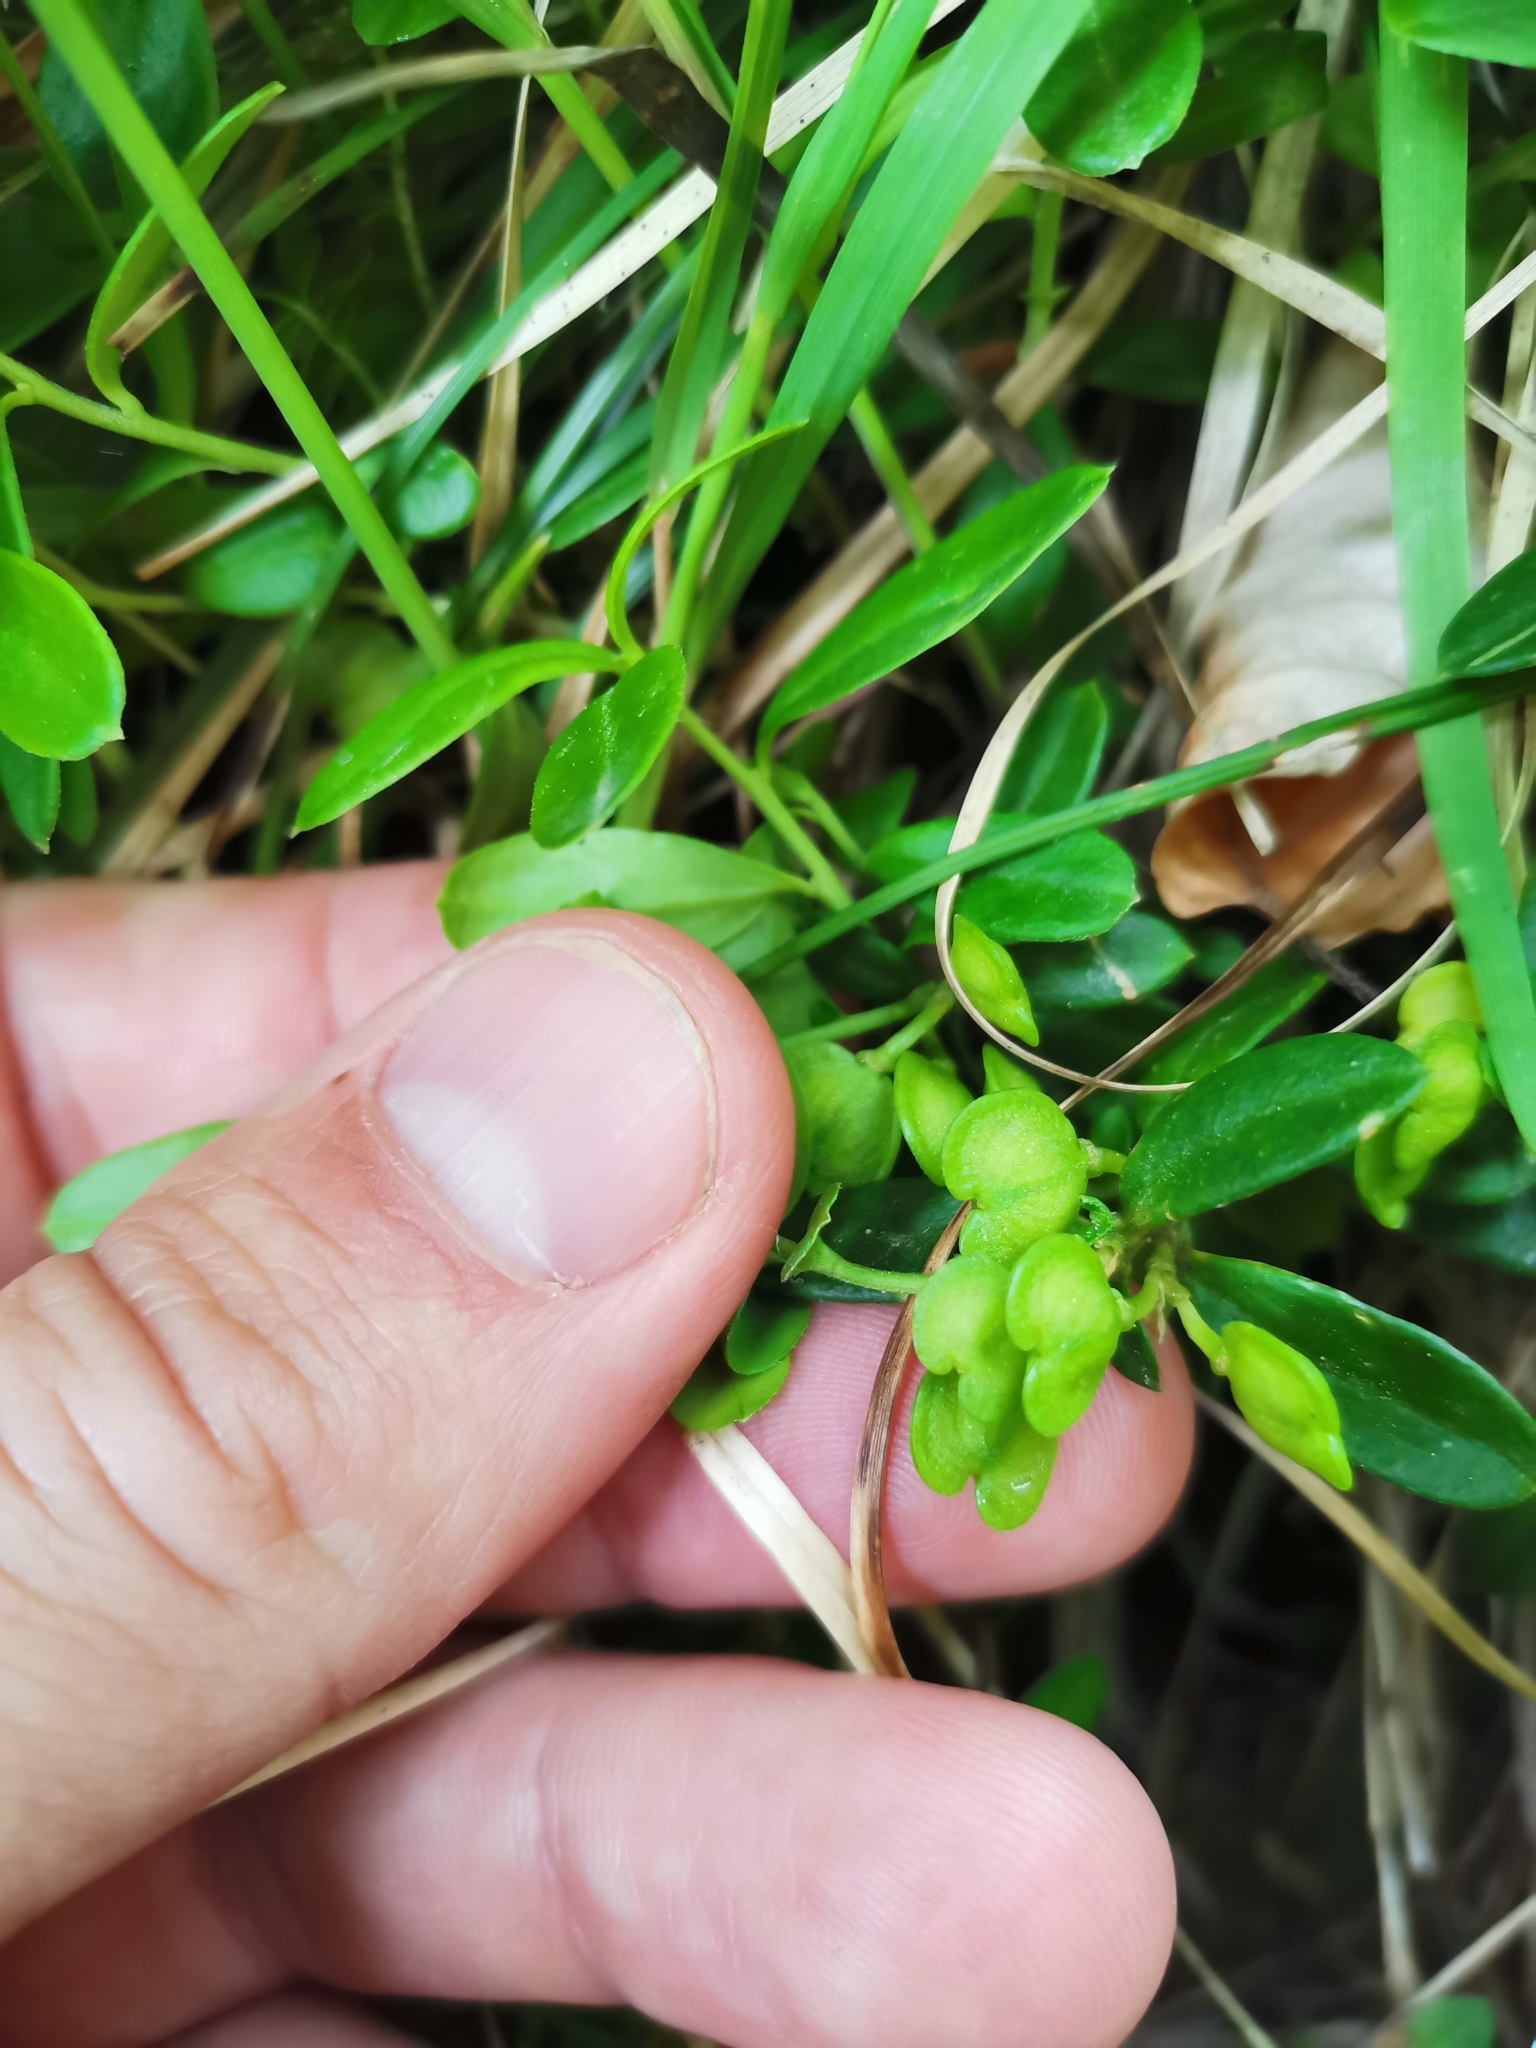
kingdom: Plantae
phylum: Tracheophyta
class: Magnoliopsida
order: Fabales
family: Polygalaceae
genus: Polygaloides
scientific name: Polygaloides chamaebuxus
